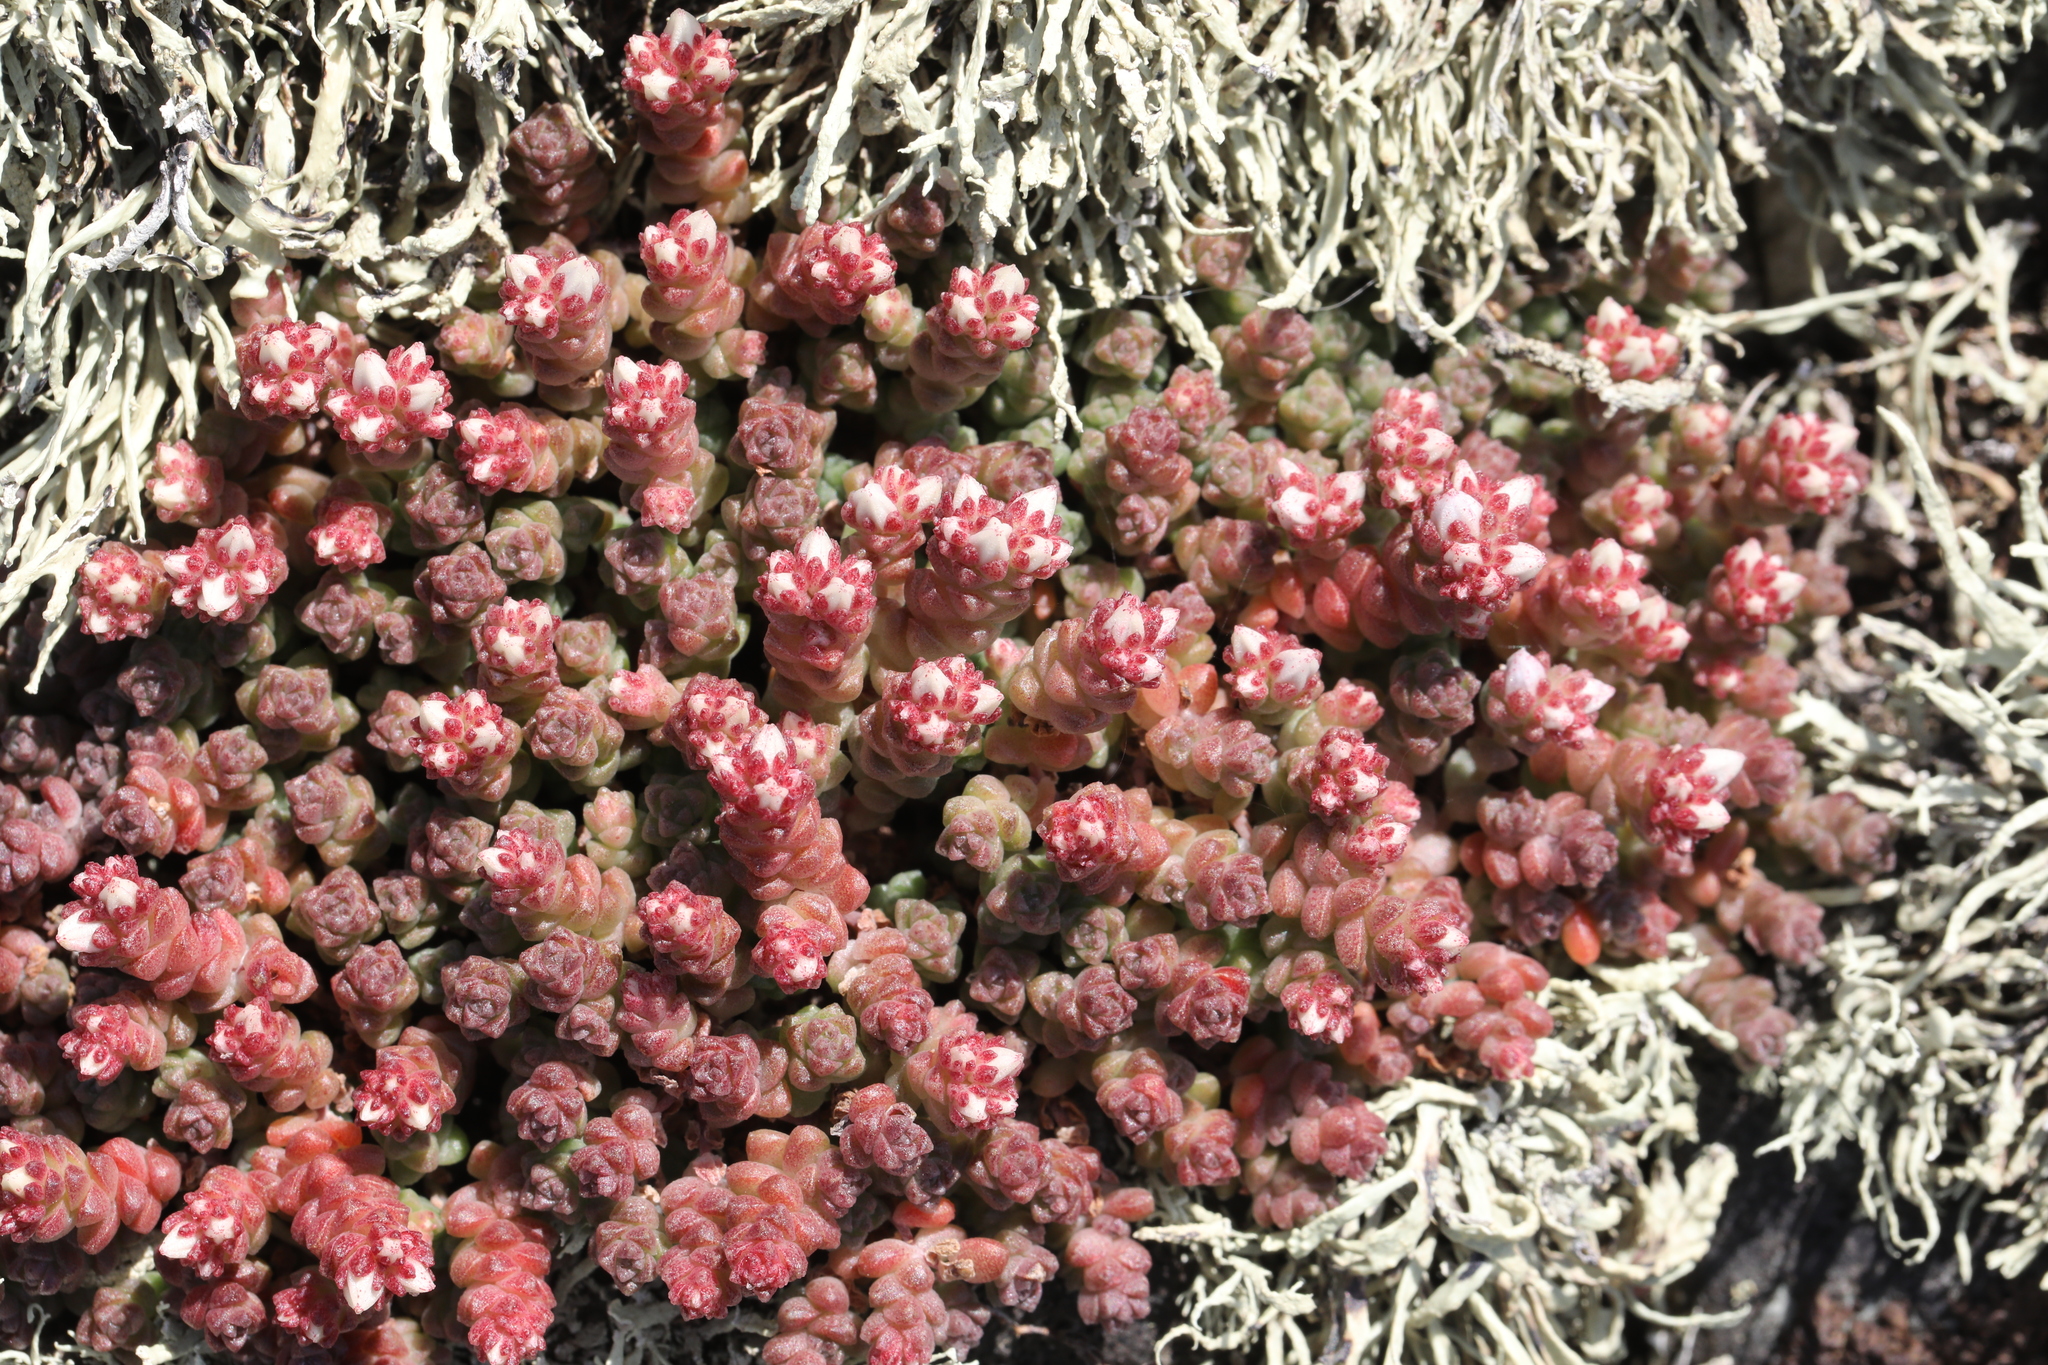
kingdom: Plantae
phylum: Tracheophyta
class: Magnoliopsida
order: Saxifragales
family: Crassulaceae
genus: Sedum
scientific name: Sedum anglicum
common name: English stonecrop
